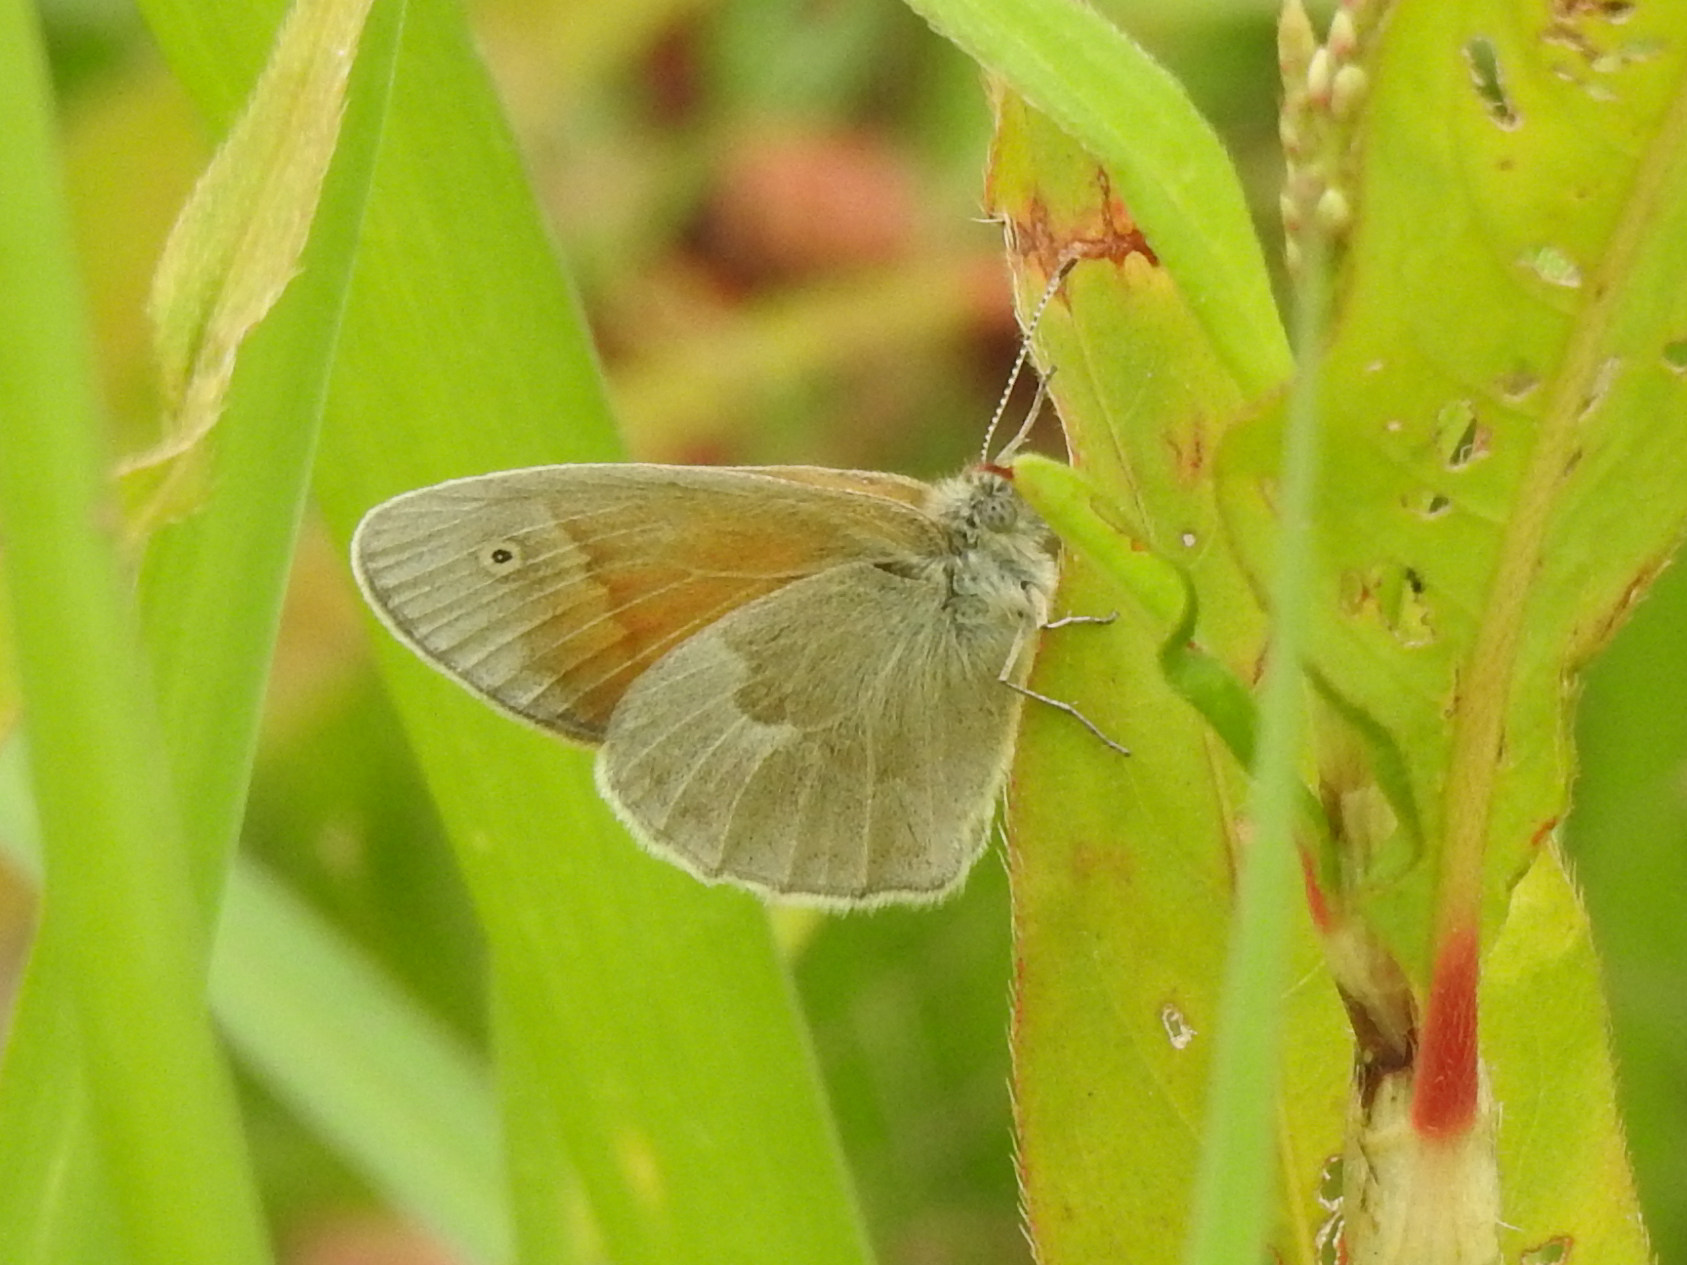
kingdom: Animalia
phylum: Arthropoda
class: Insecta
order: Lepidoptera
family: Nymphalidae
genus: Coenonympha
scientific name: Coenonympha california
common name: Common ringlet
